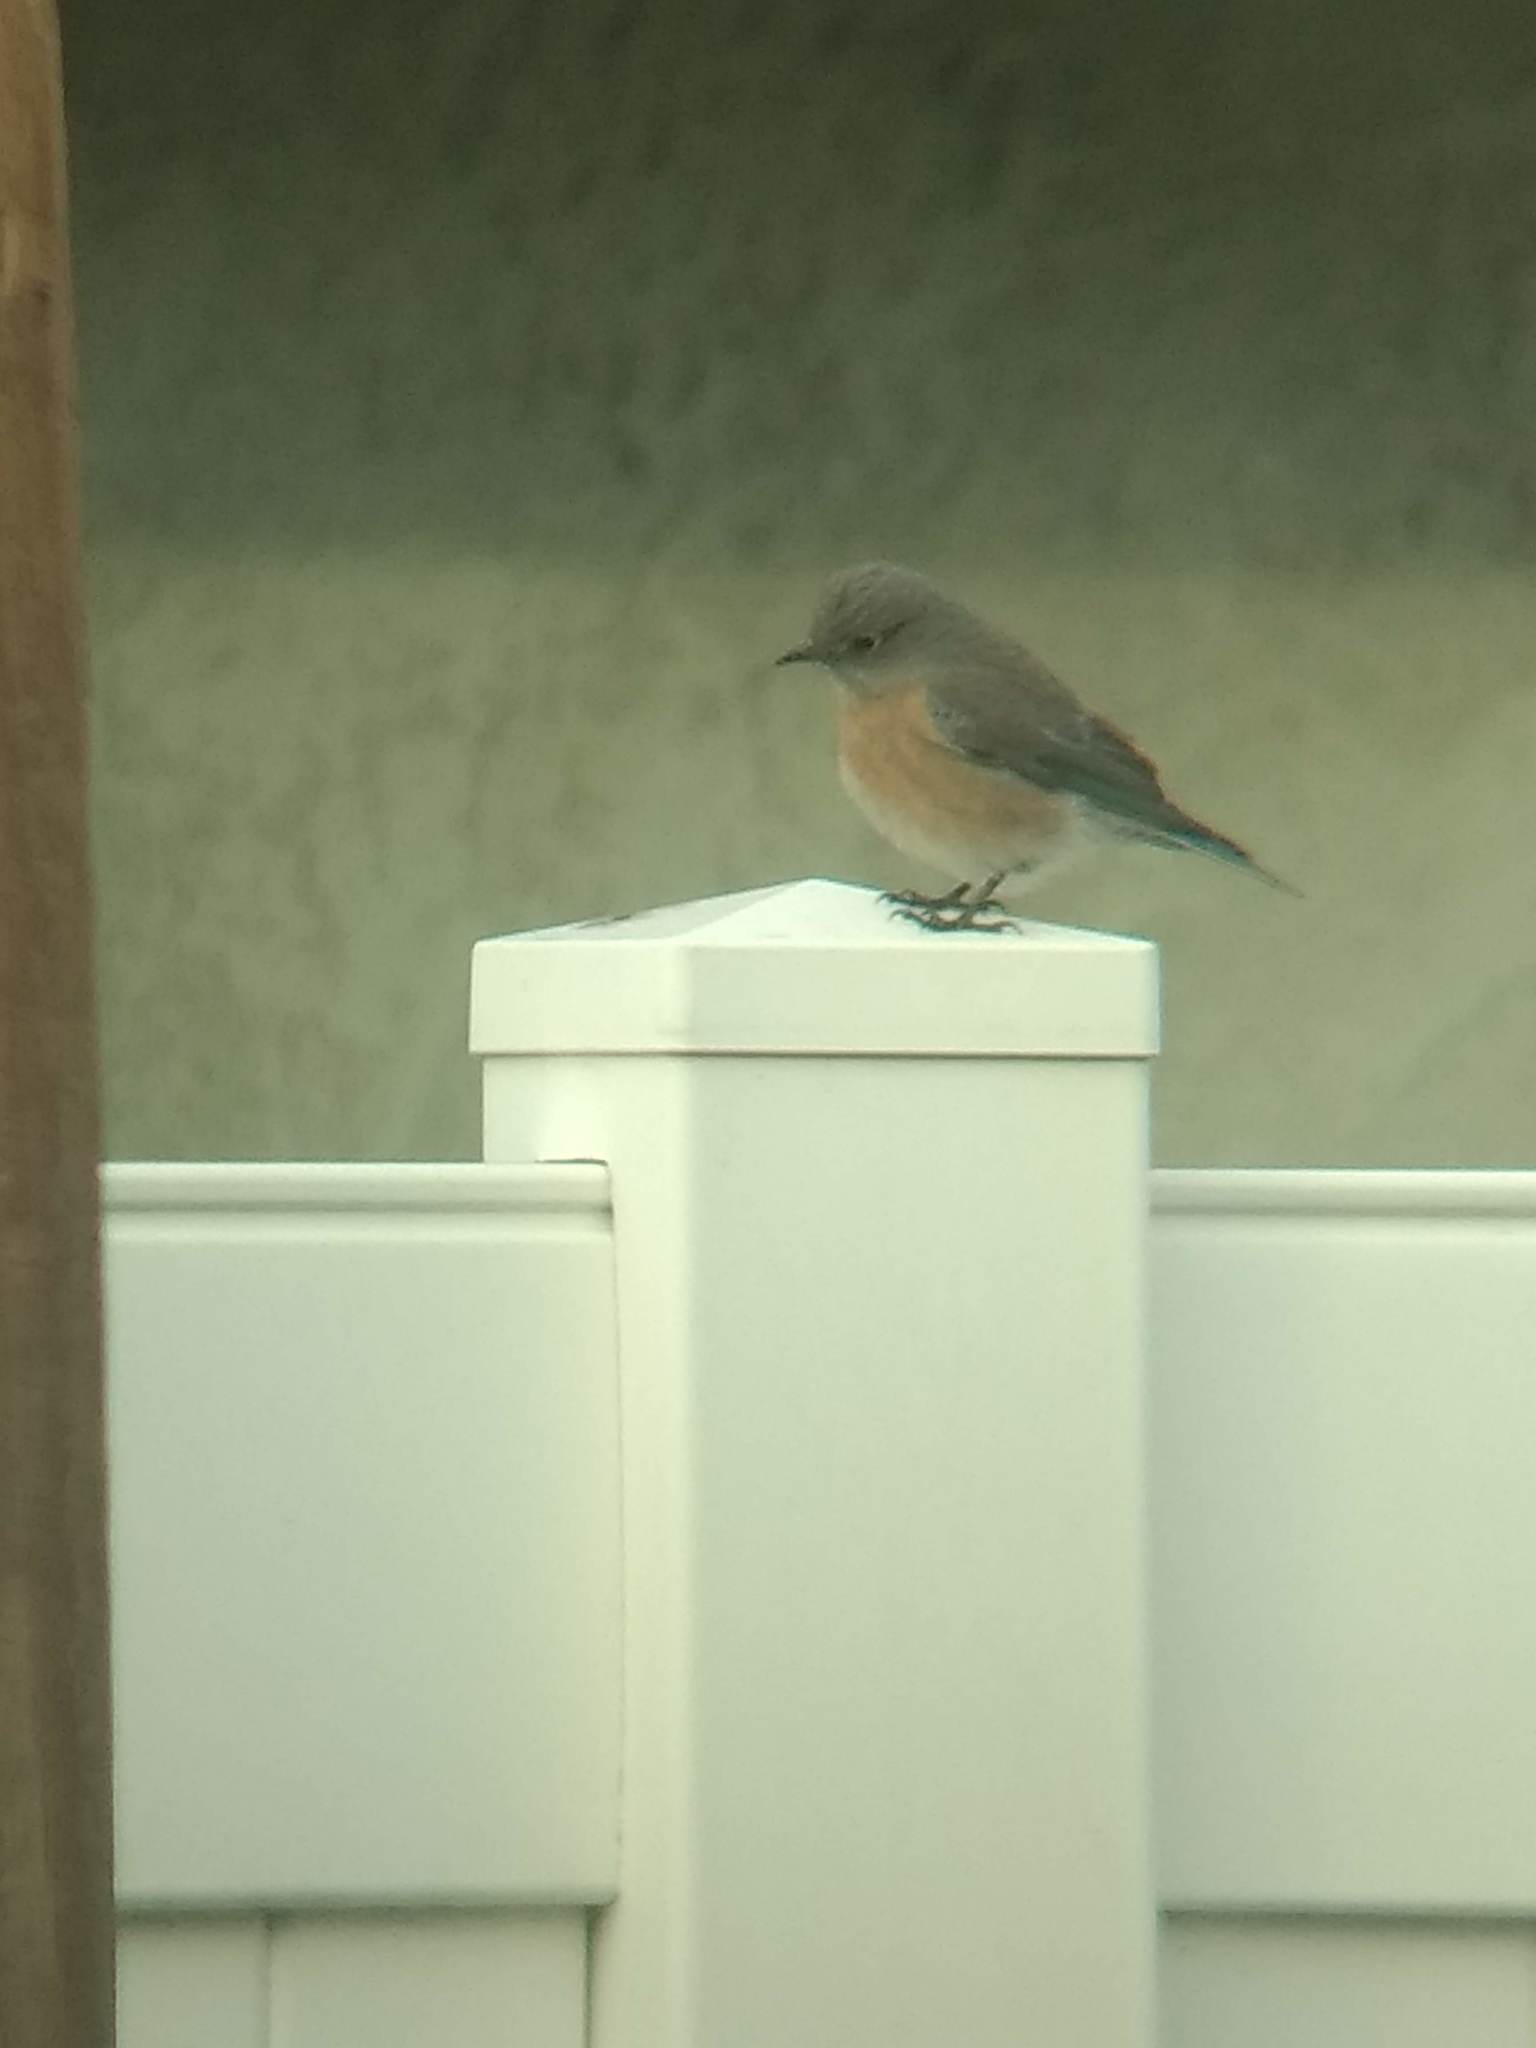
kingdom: Animalia
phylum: Chordata
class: Aves
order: Passeriformes
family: Turdidae
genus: Sialia
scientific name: Sialia mexicana
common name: Western bluebird
